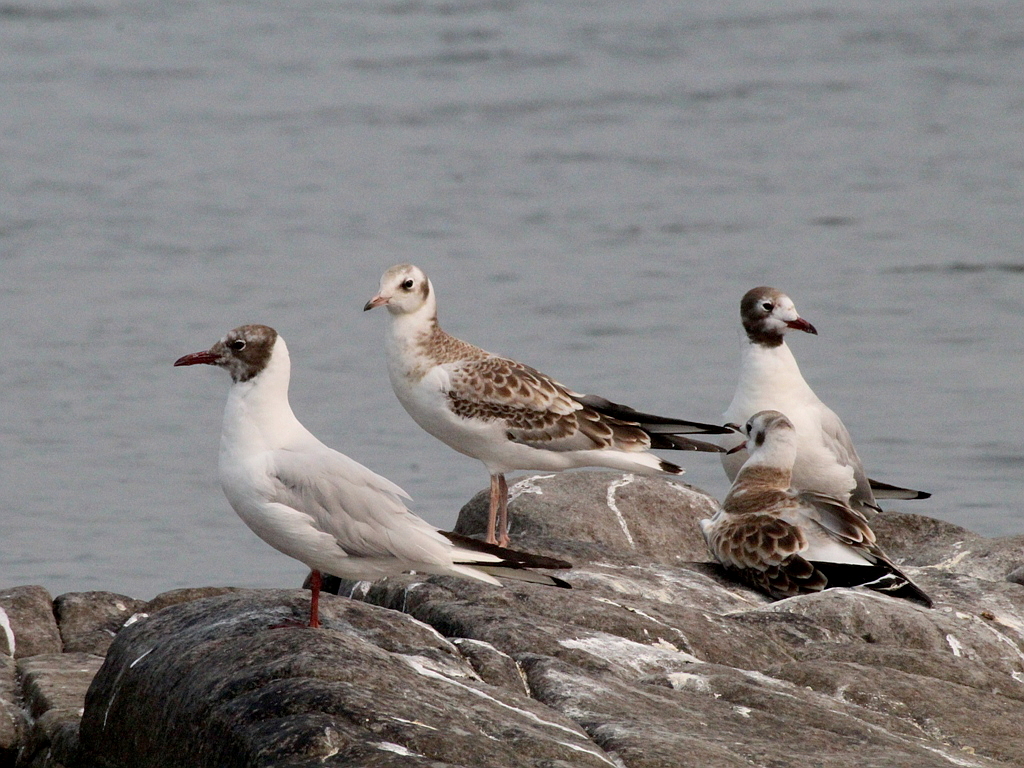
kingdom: Animalia
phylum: Chordata
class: Aves
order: Charadriiformes
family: Laridae
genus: Chroicocephalus
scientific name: Chroicocephalus ridibundus
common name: Black-headed gull
